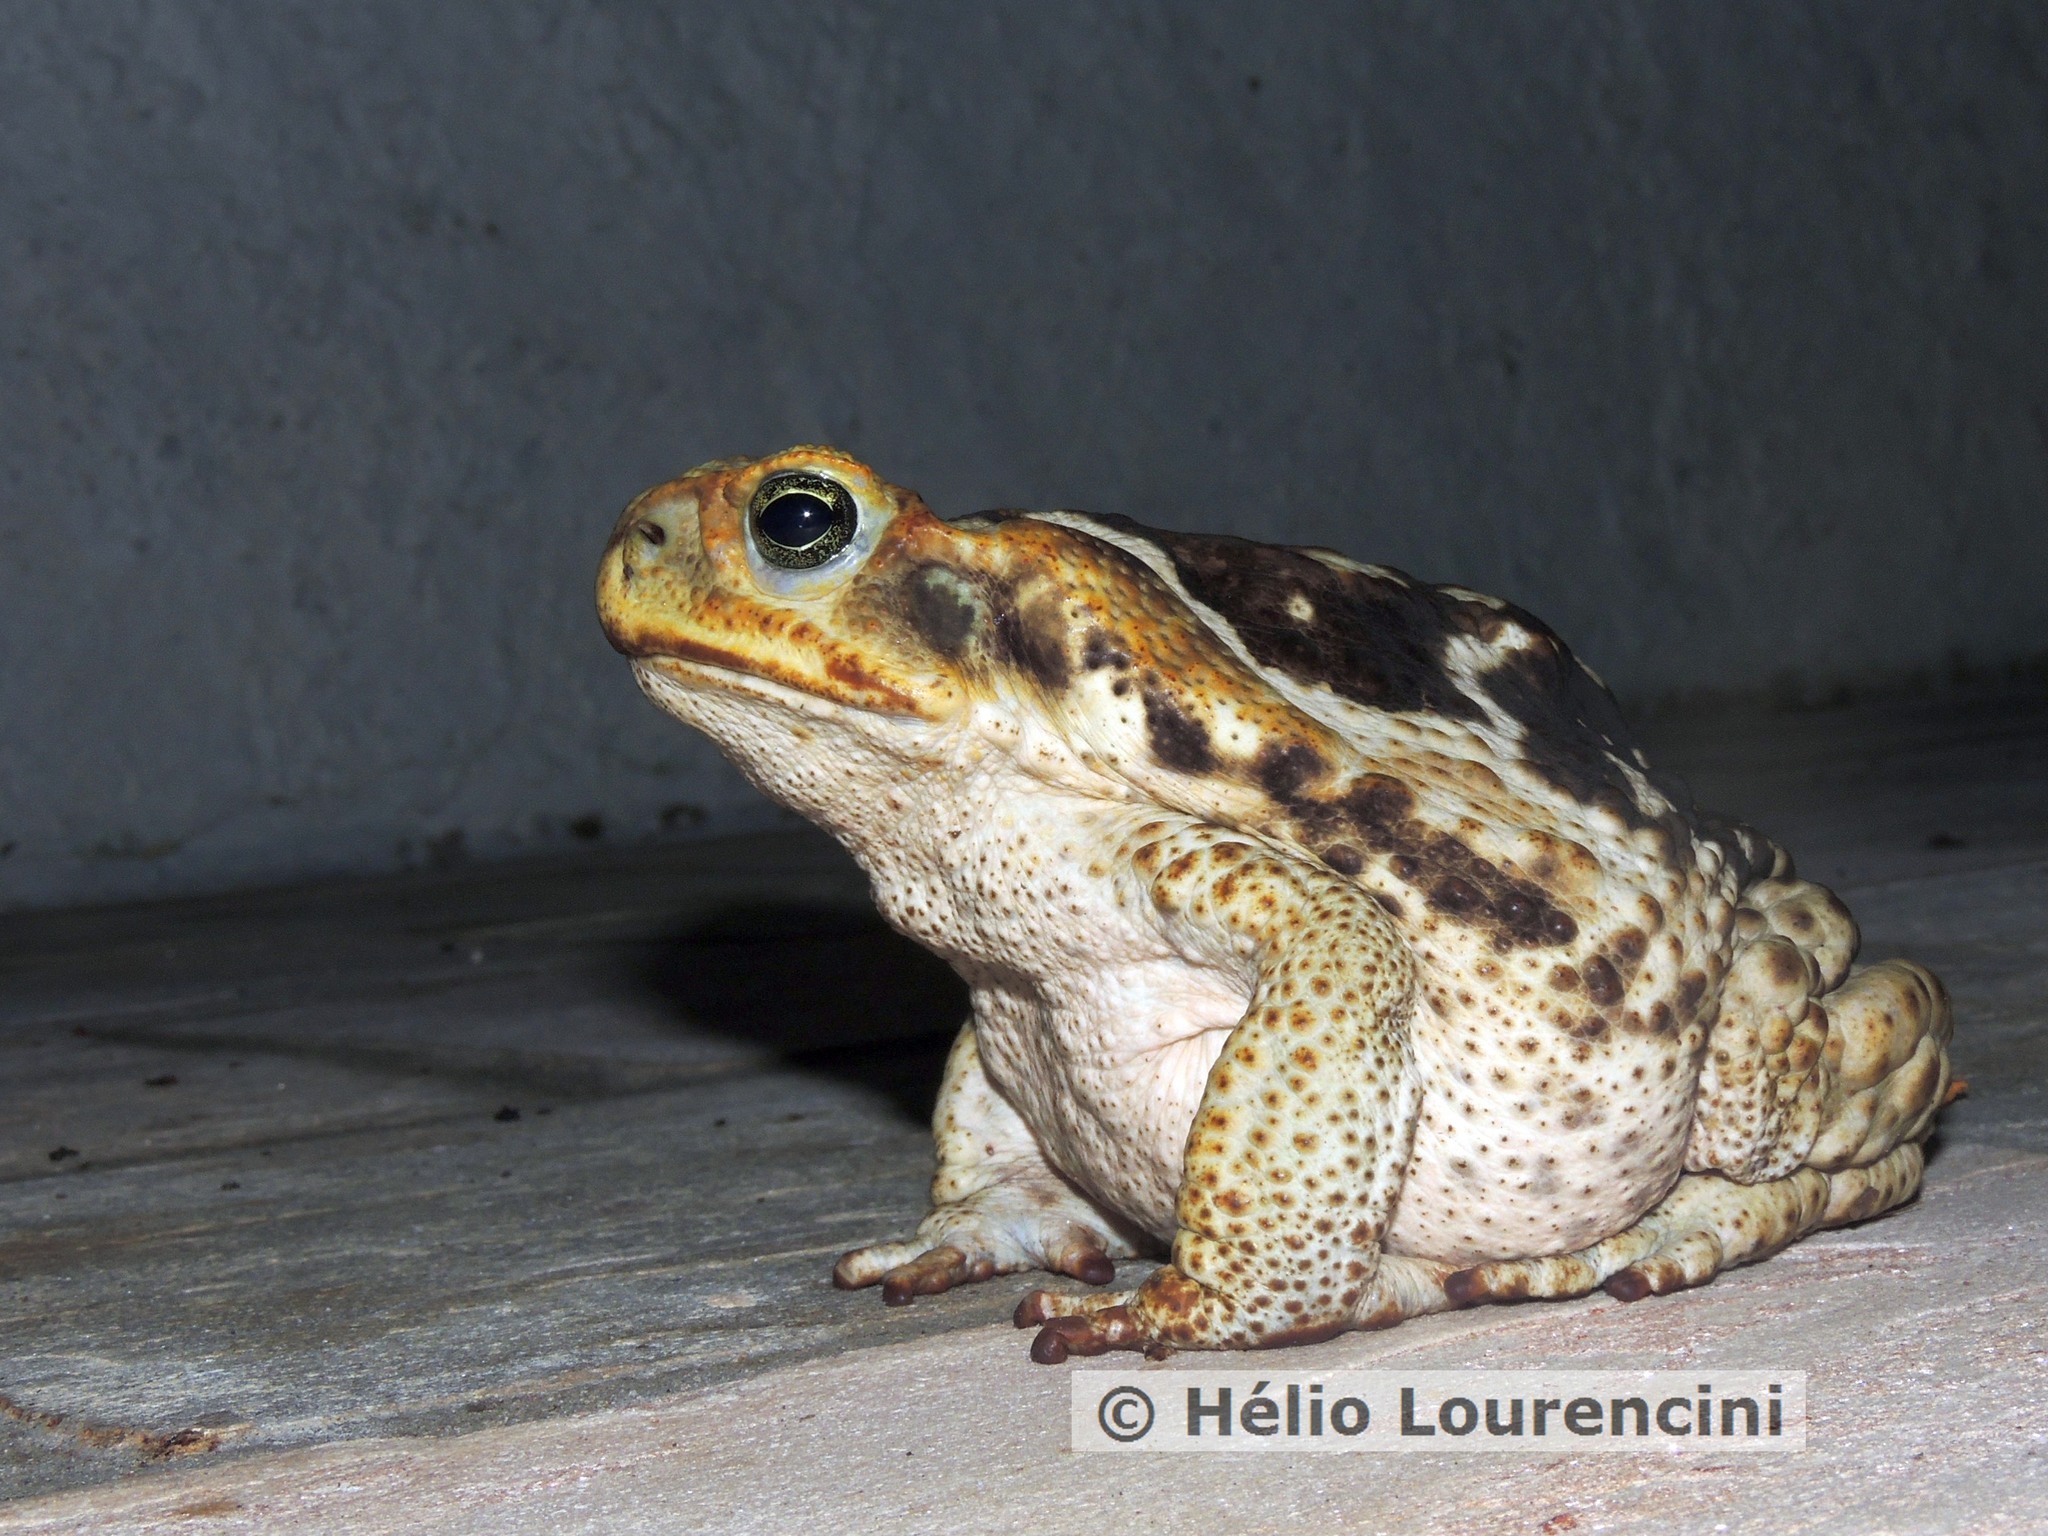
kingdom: Animalia
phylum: Chordata
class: Amphibia
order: Anura
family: Bufonidae
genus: Rhinella
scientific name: Rhinella diptycha
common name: Cope's toad
